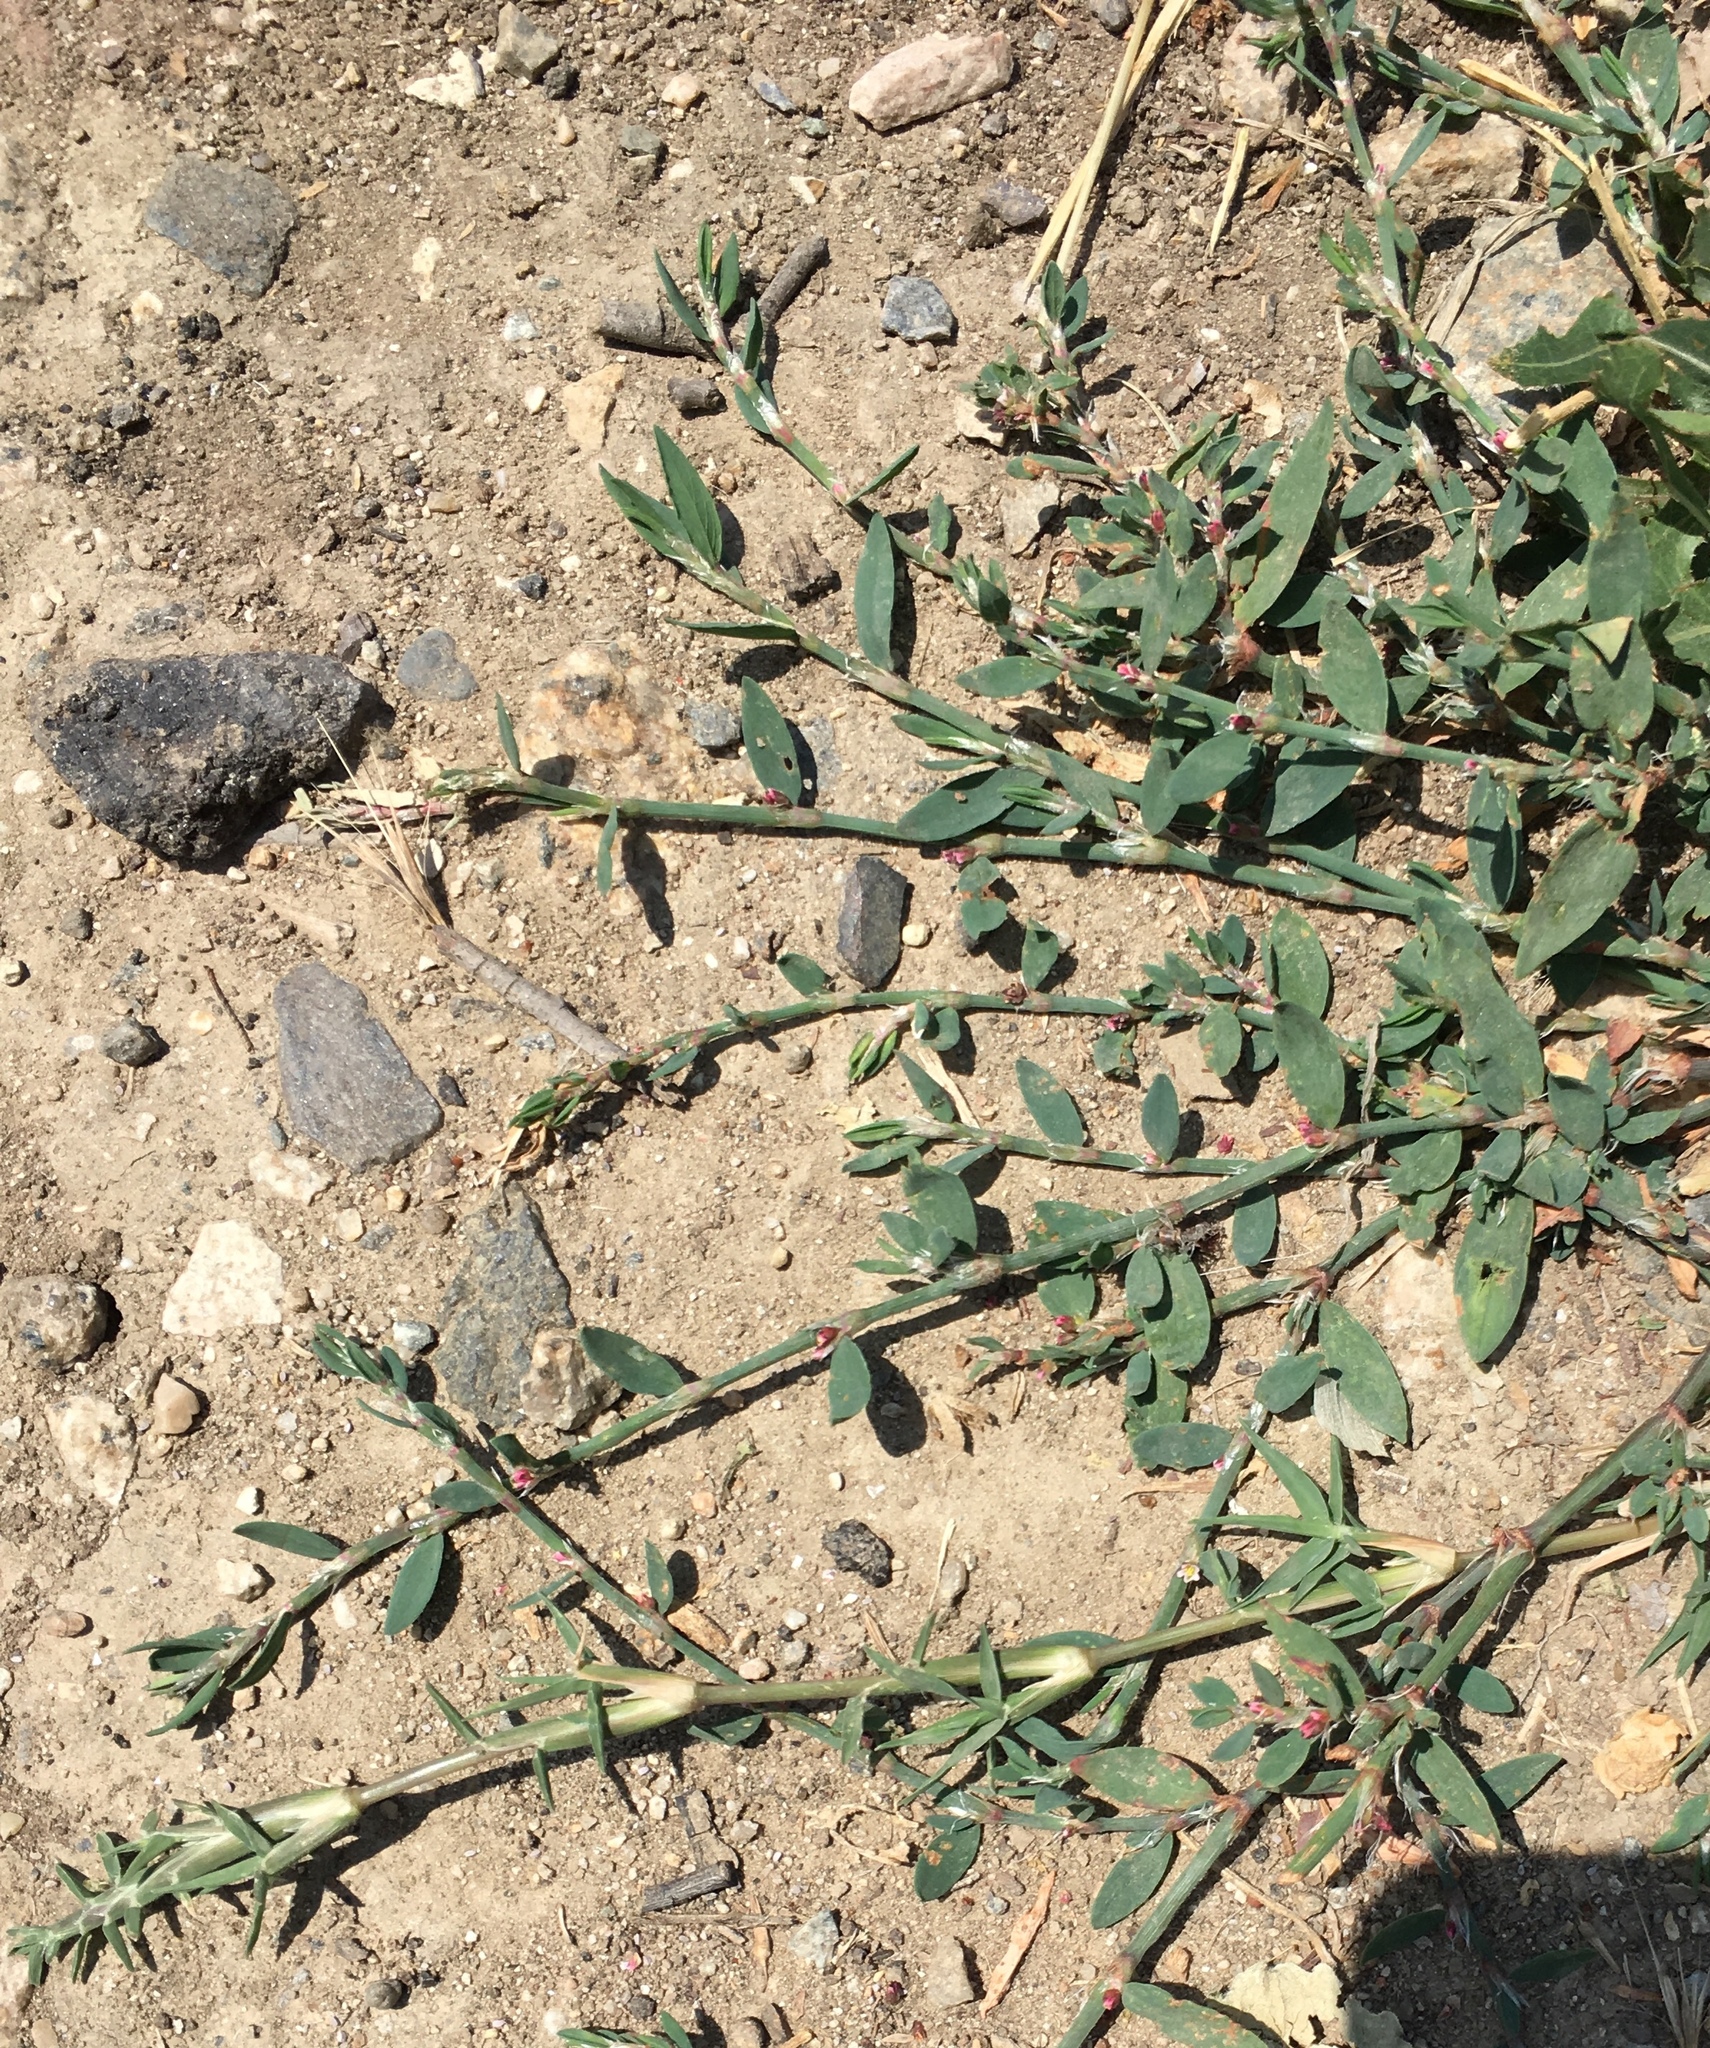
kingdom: Plantae
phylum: Tracheophyta
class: Magnoliopsida
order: Caryophyllales
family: Polygonaceae
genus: Polygonum
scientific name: Polygonum aviculare
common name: Prostrate knotweed
